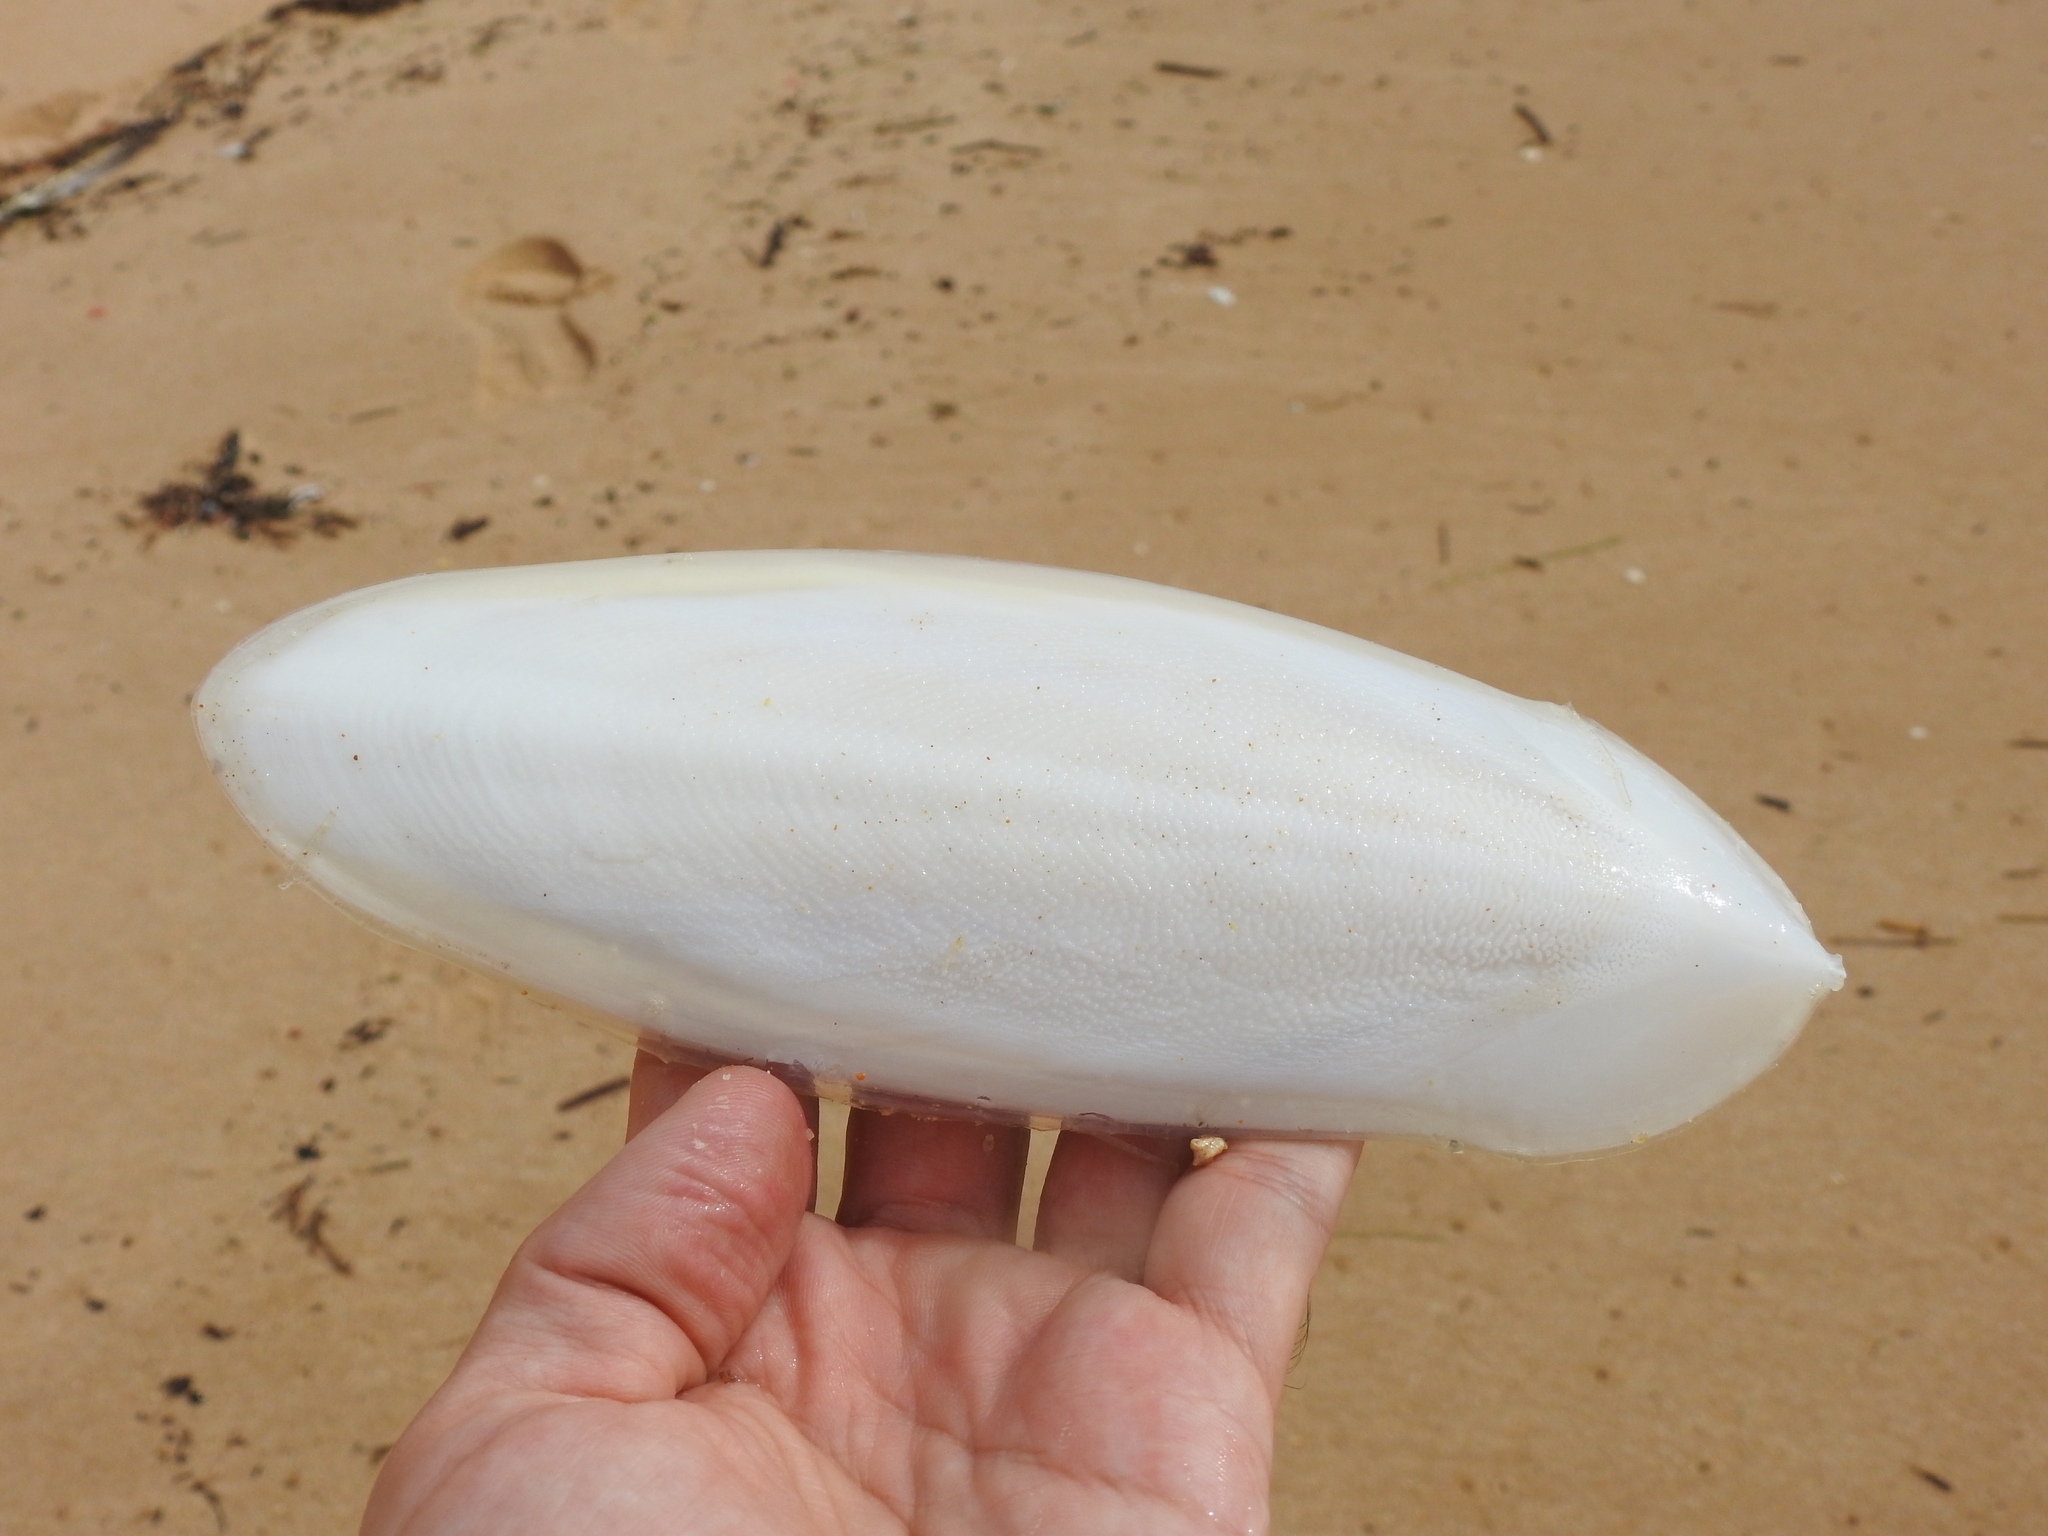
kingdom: Animalia
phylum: Mollusca
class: Cephalopoda
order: Sepiida
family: Sepiidae
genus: Sepia
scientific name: Sepia officinalis
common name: Common cuttlefish
